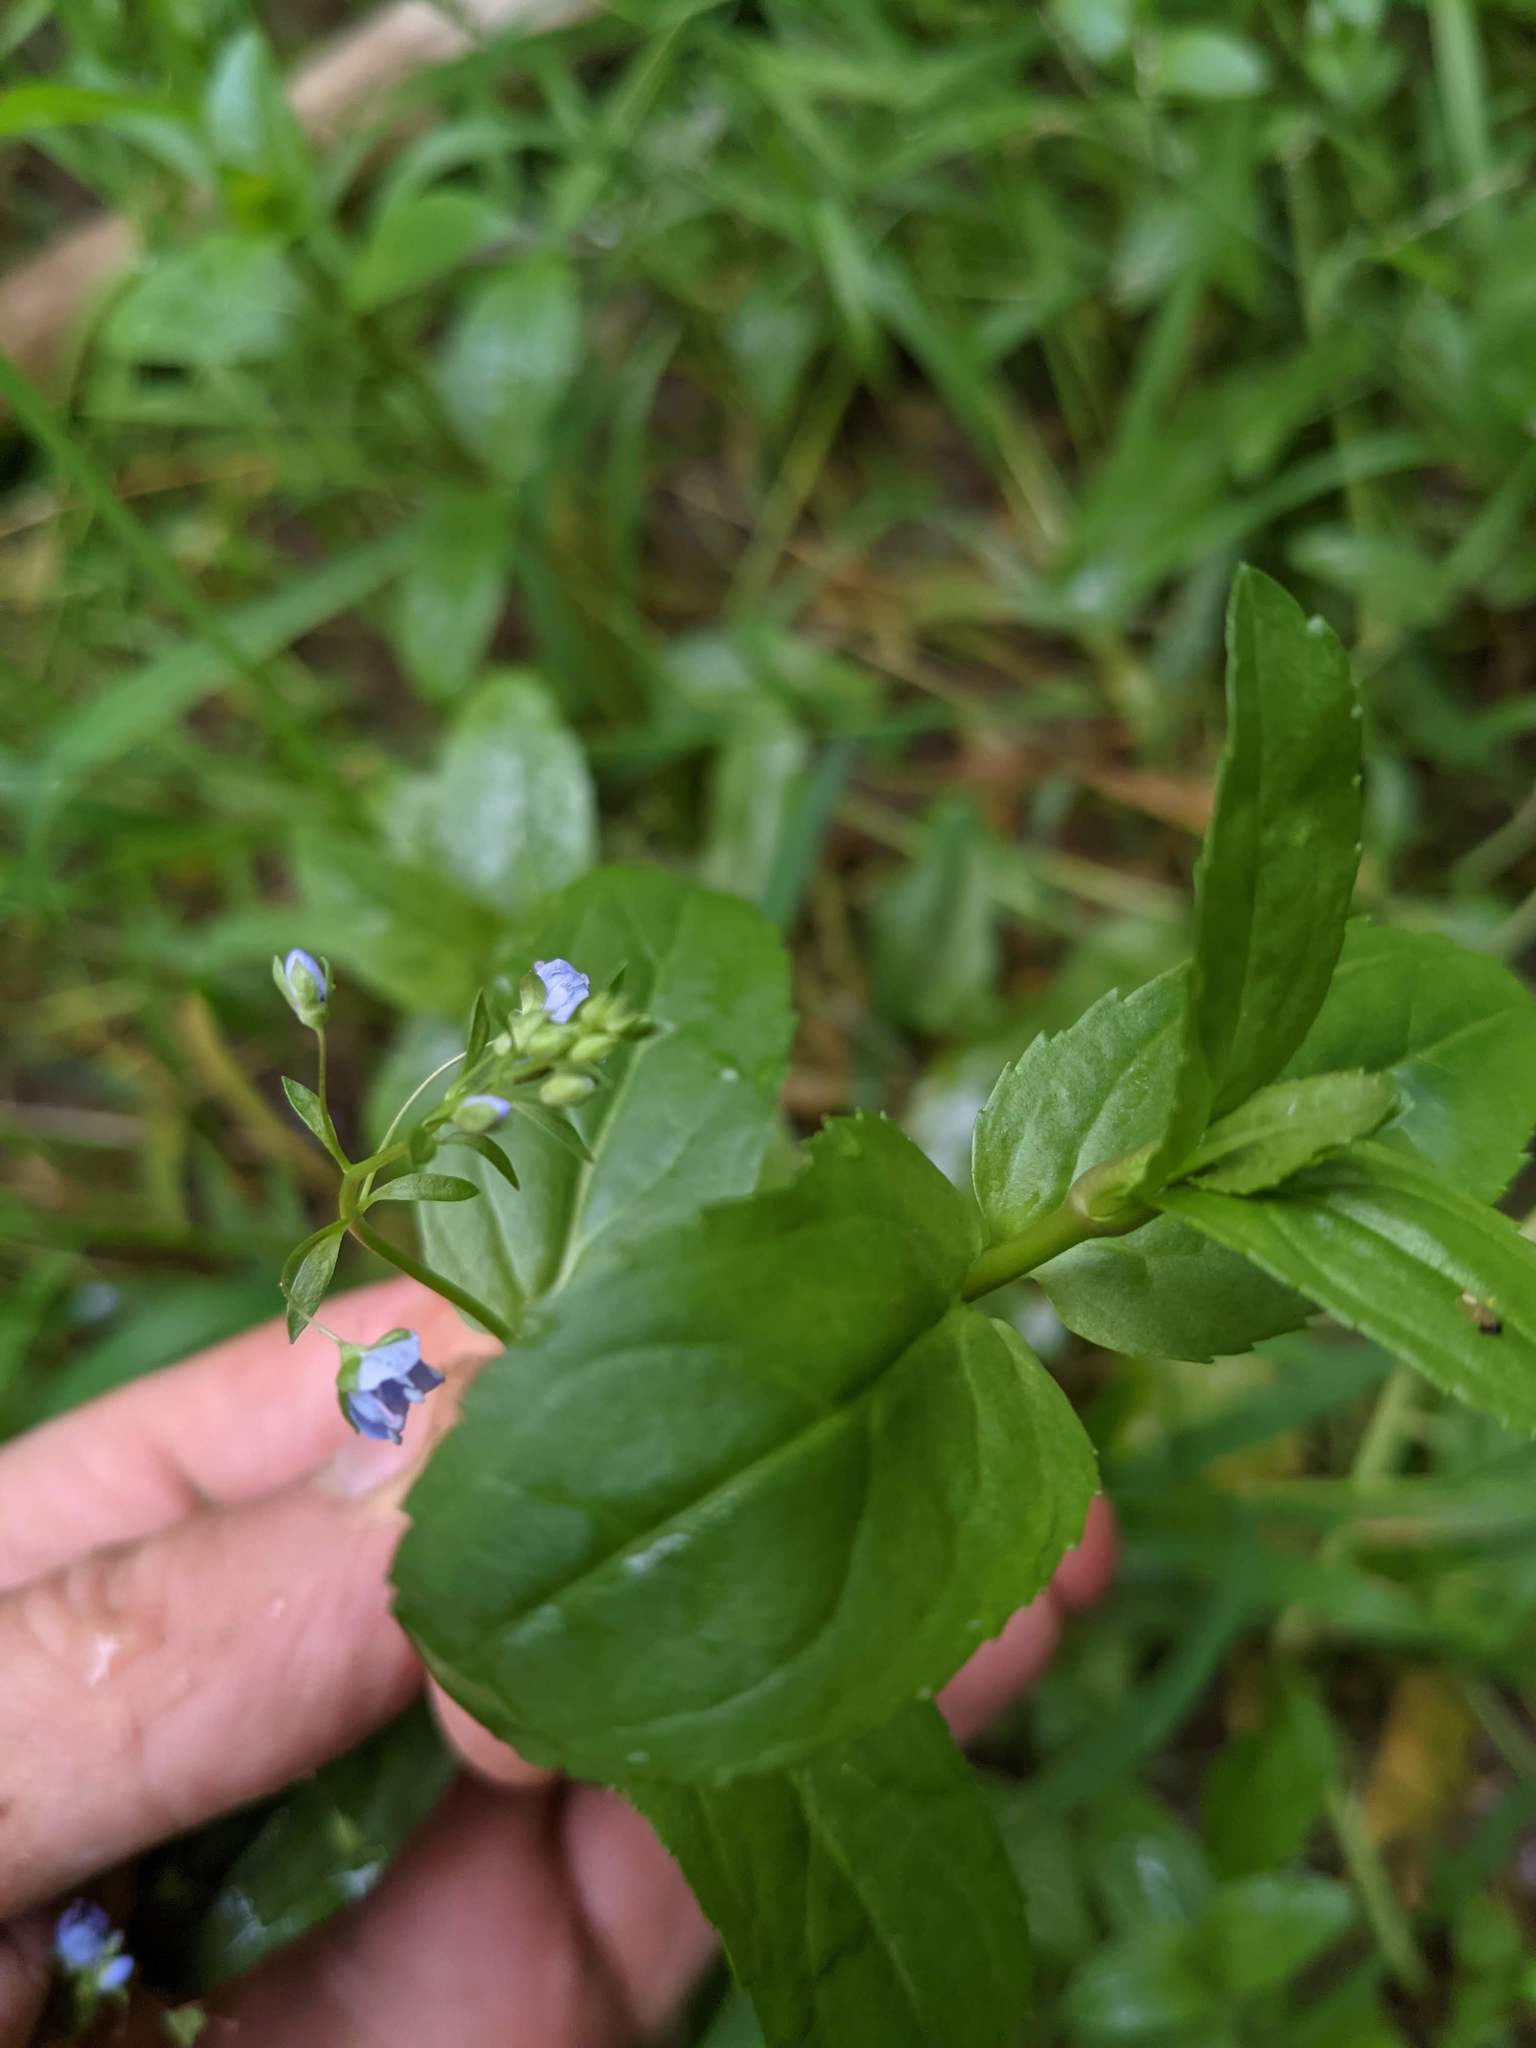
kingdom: Plantae
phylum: Tracheophyta
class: Magnoliopsida
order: Lamiales
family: Plantaginaceae
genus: Veronica
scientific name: Veronica americana
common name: American brooklime
